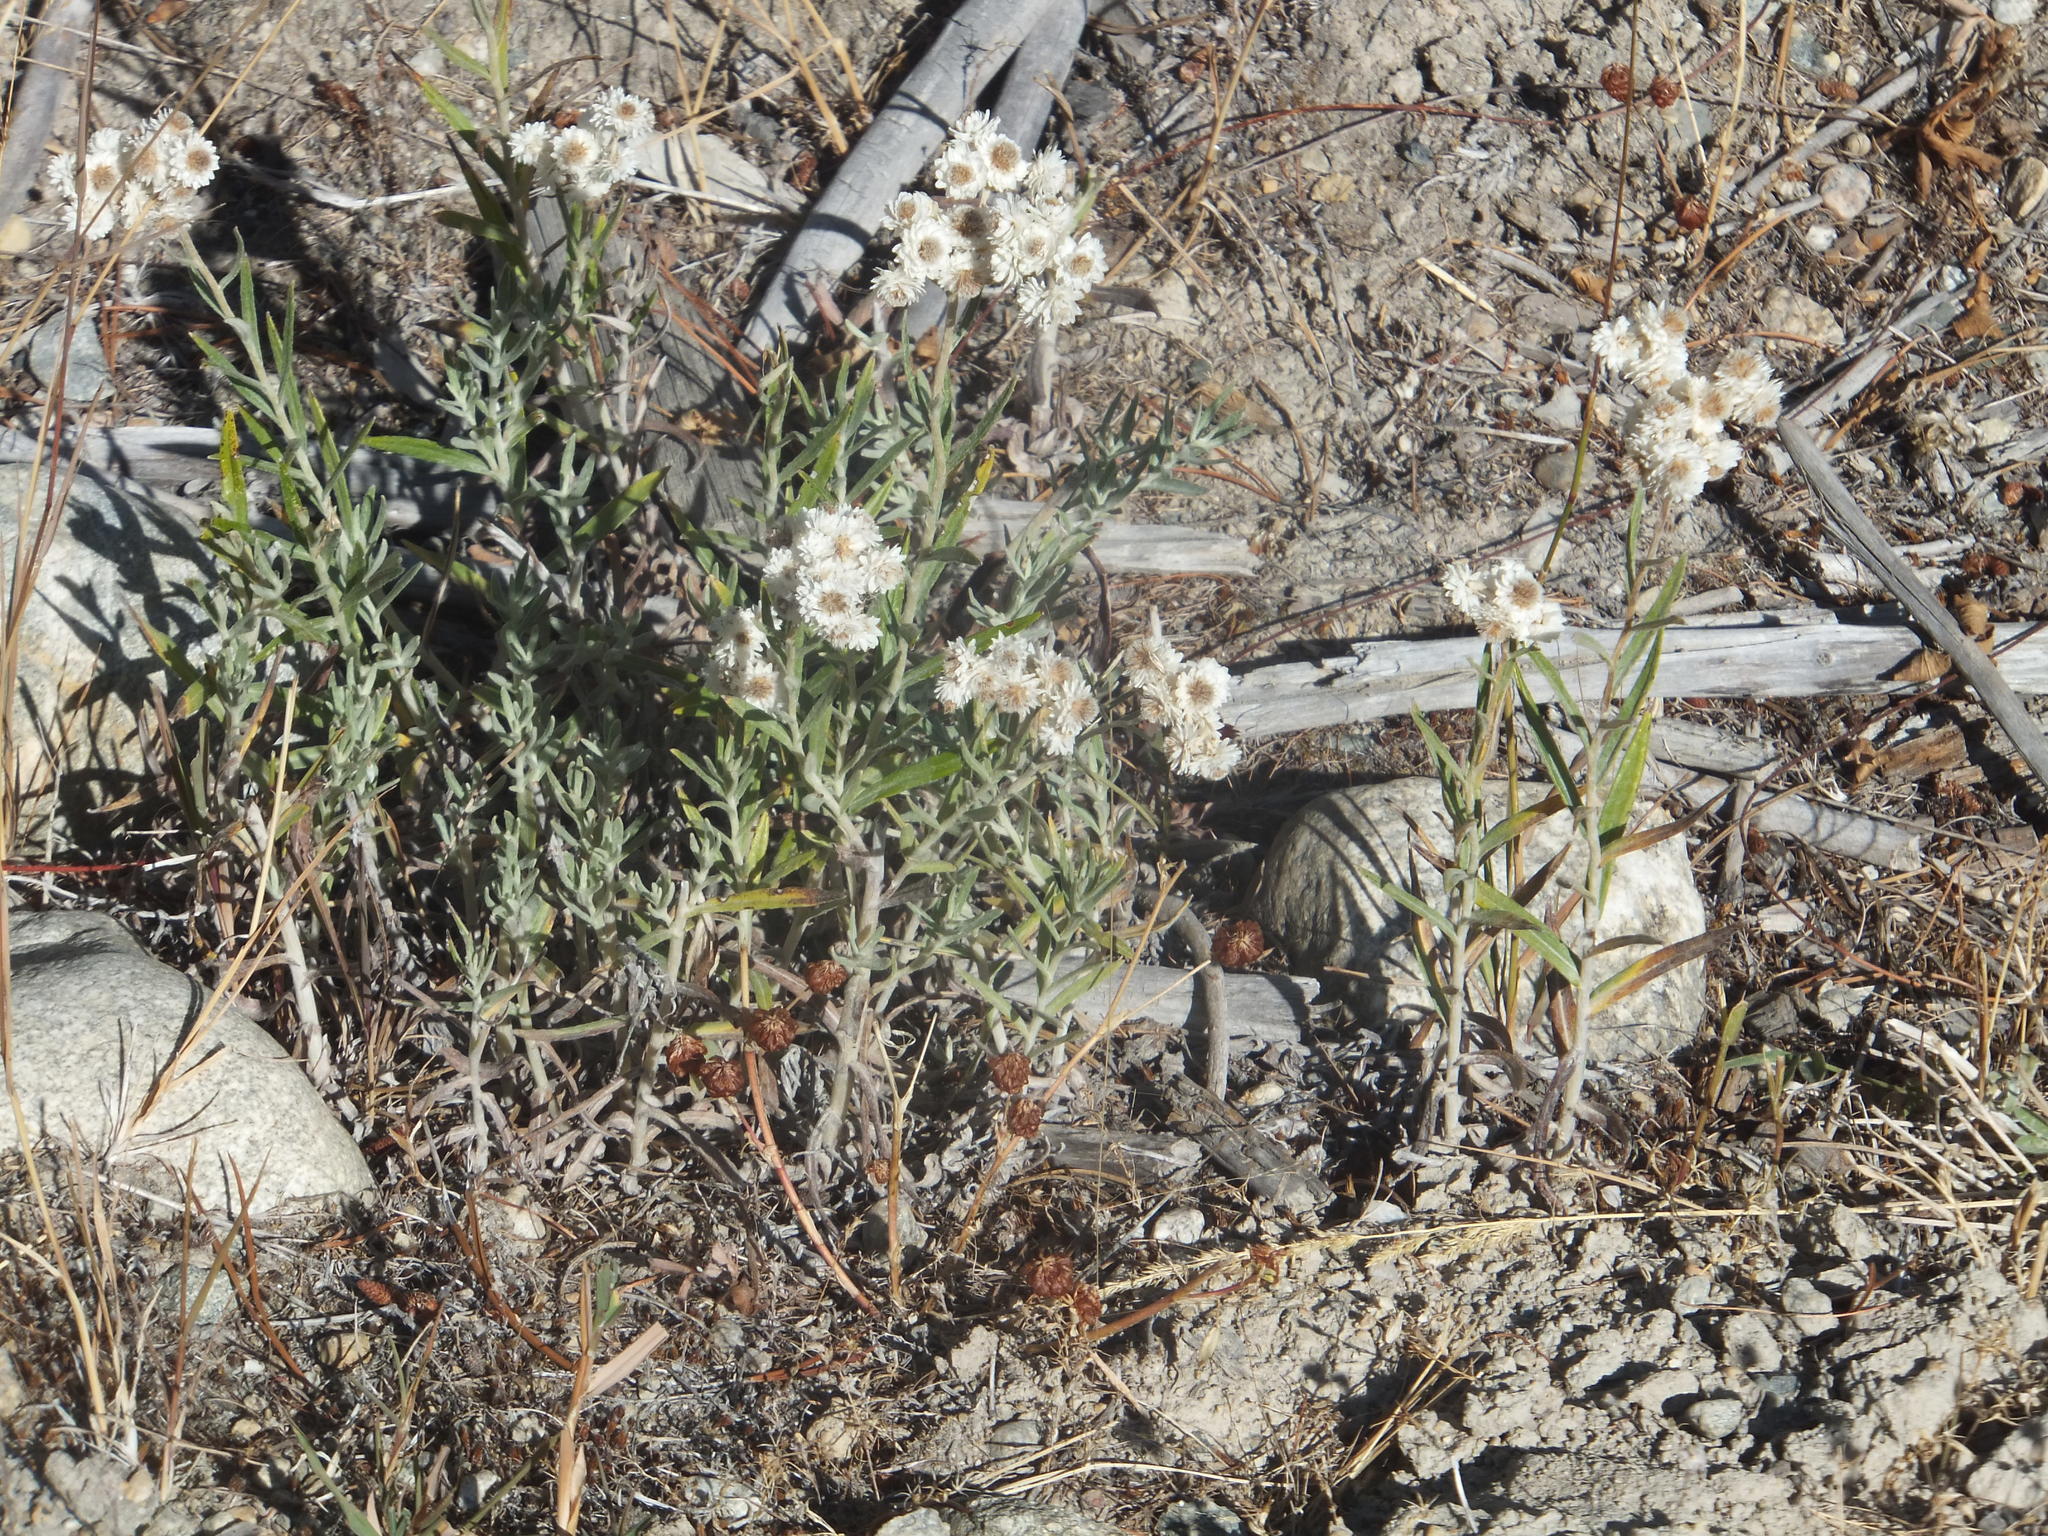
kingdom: Plantae
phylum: Tracheophyta
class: Magnoliopsida
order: Asterales
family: Asteraceae
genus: Anaphalis
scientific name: Anaphalis margaritacea
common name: Pearly everlasting
